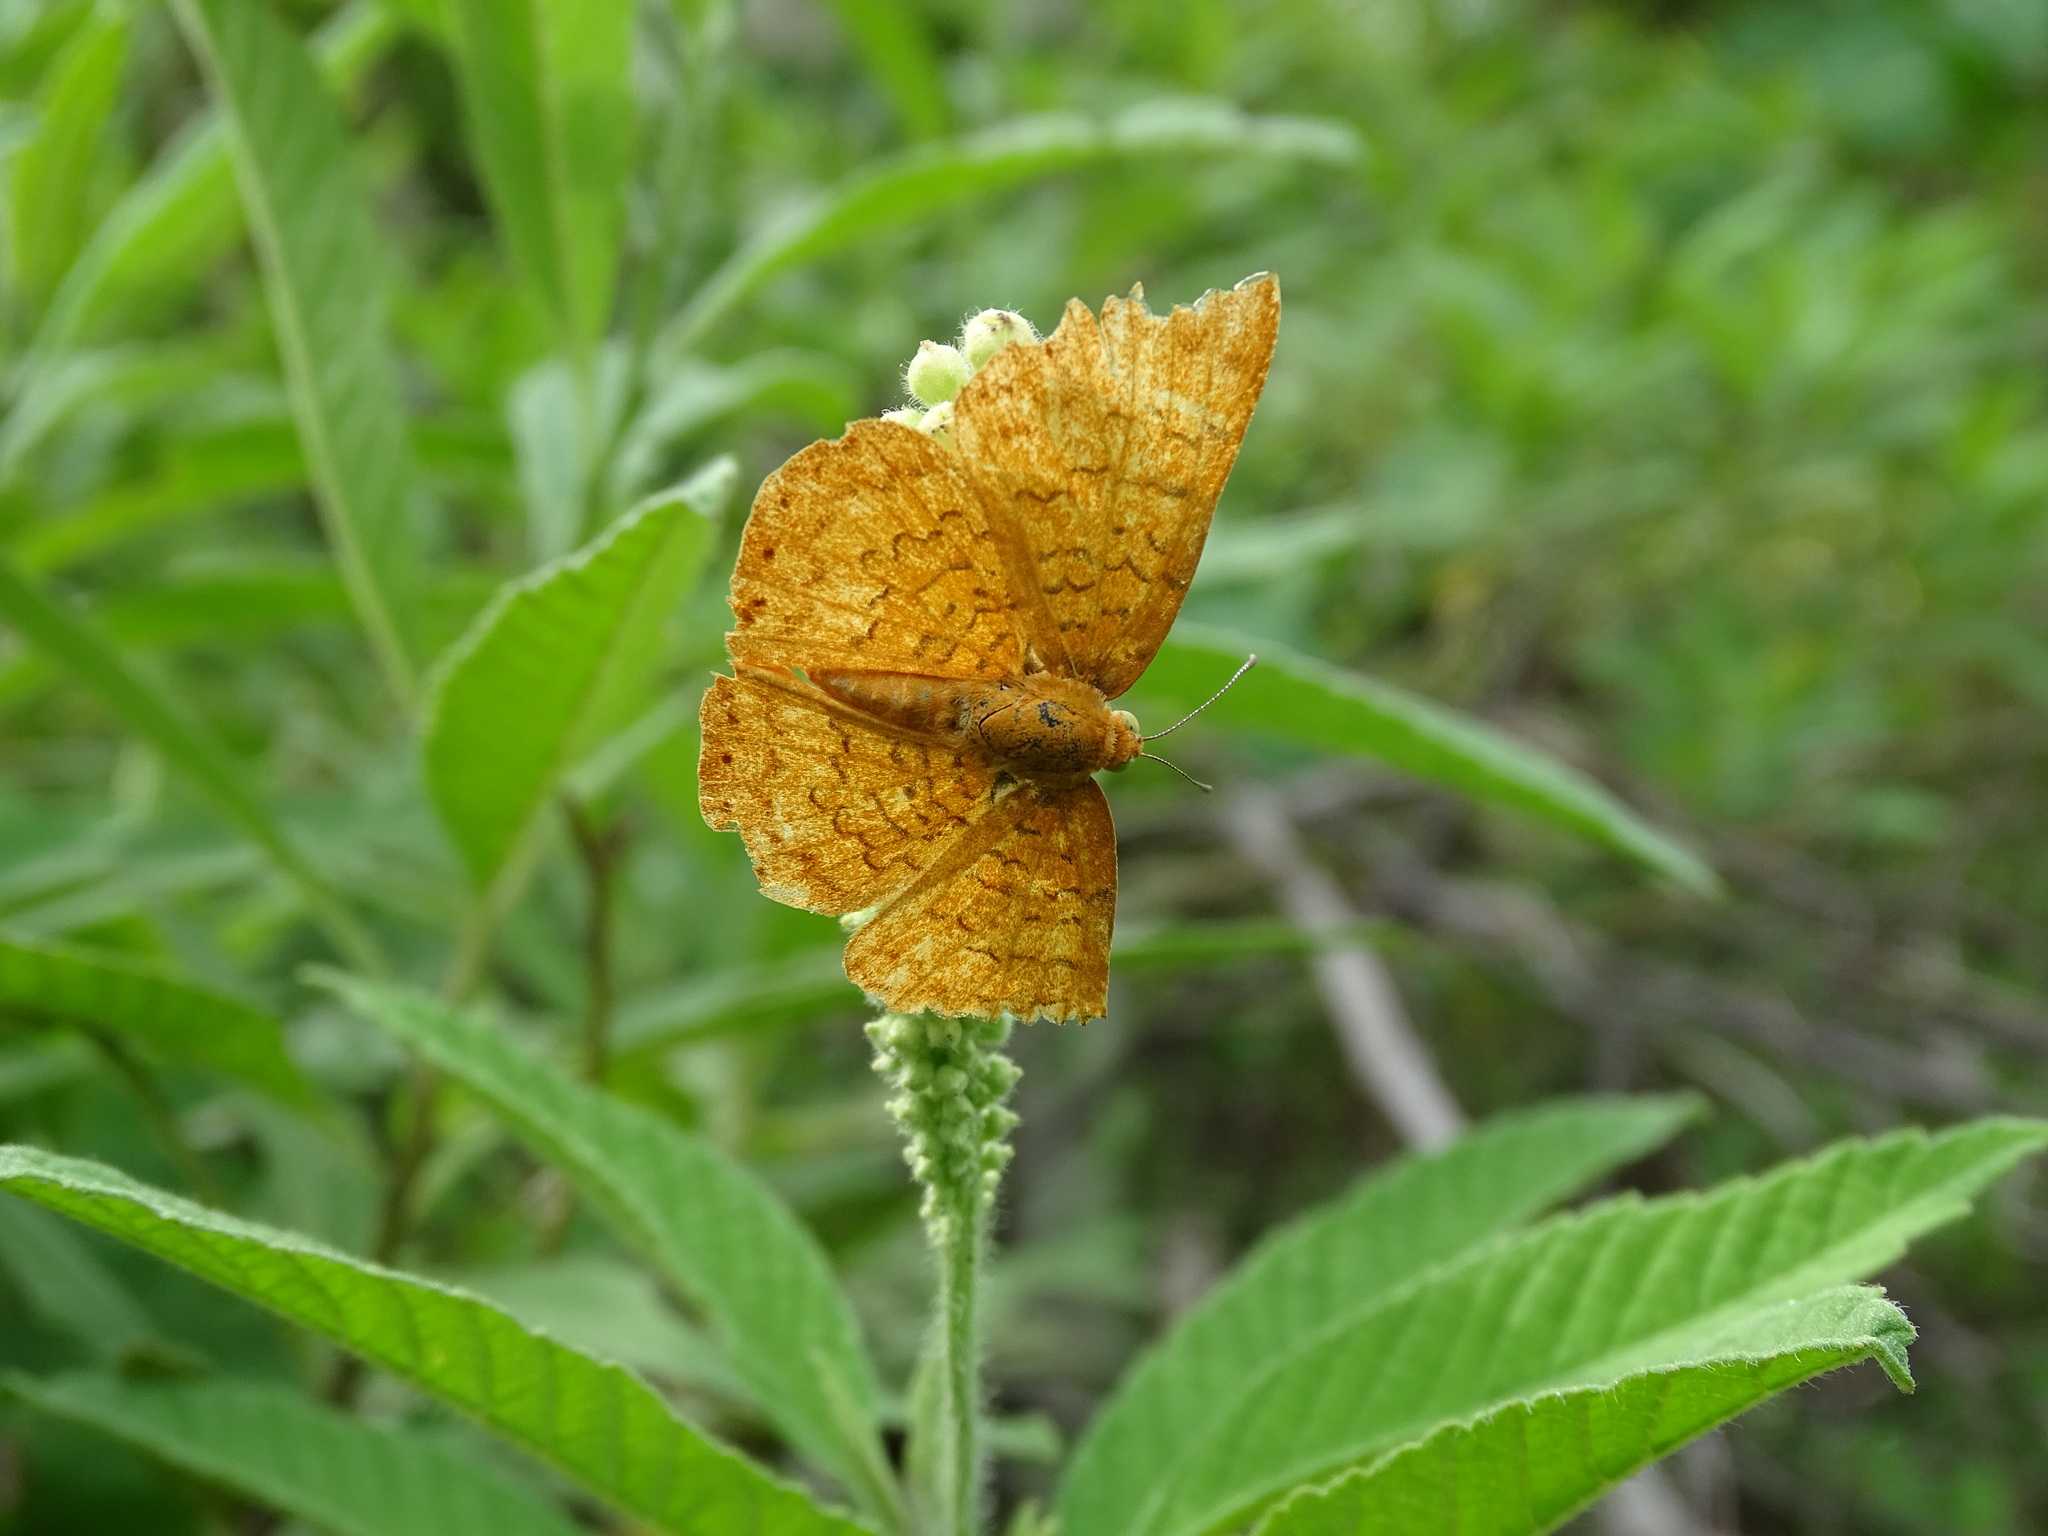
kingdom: Animalia
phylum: Arthropoda
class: Insecta
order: Lepidoptera
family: Lycaenidae
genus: Emesis
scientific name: Emesis tenedia
